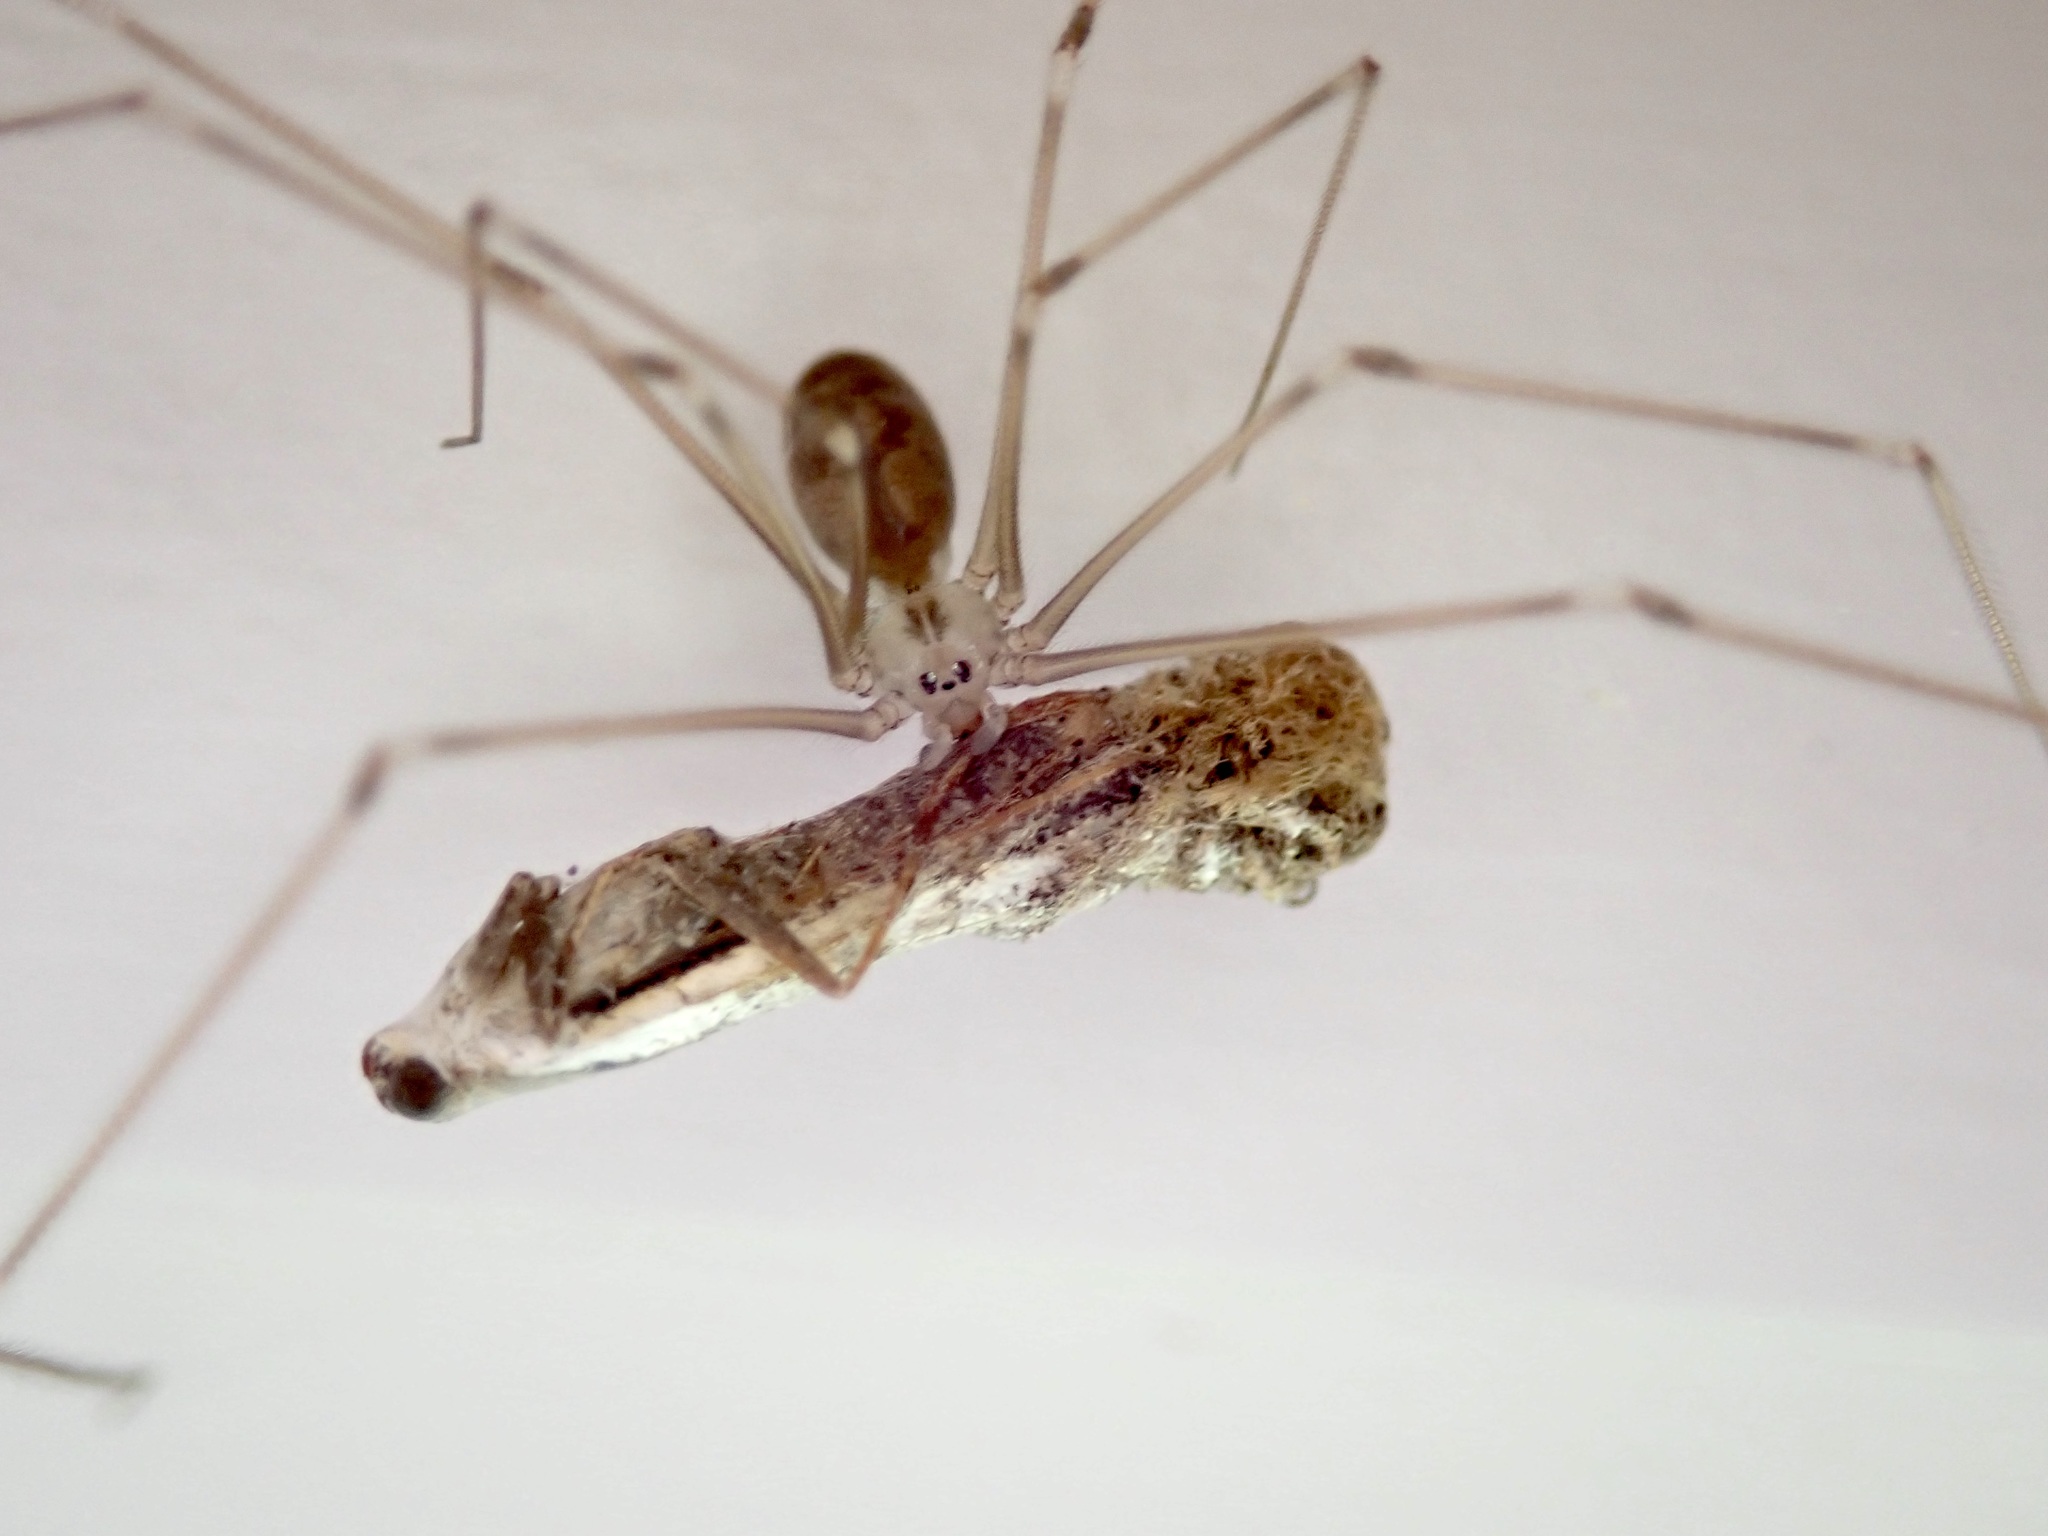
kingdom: Animalia
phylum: Arthropoda
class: Arachnida
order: Araneae
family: Pholcidae
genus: Pholcus
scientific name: Pholcus phalangioides
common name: Longbodied cellar spider
